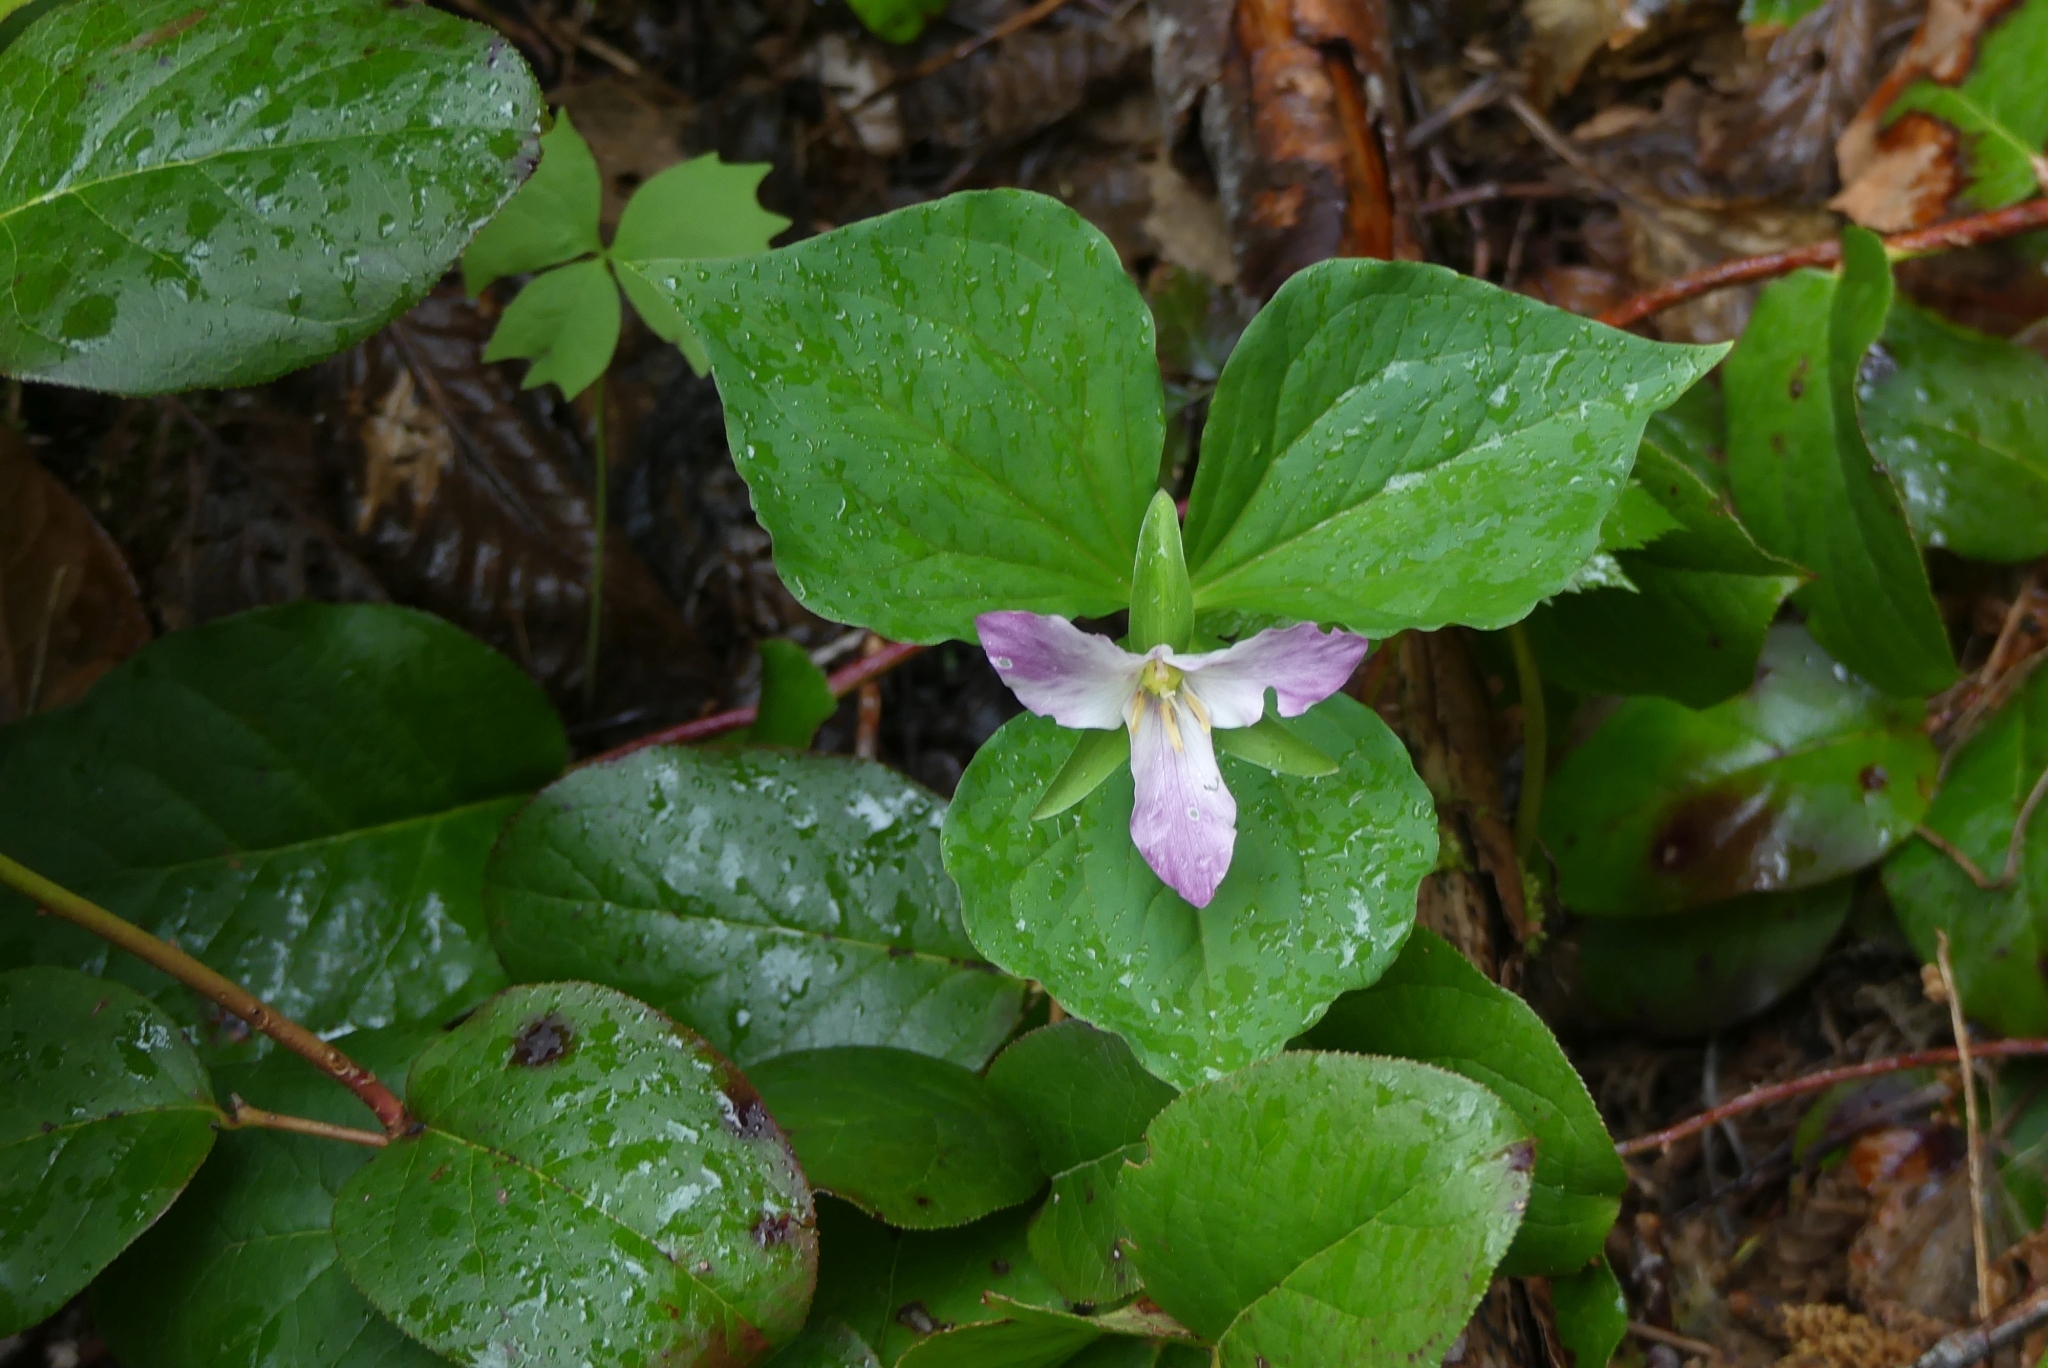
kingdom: Plantae
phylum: Tracheophyta
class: Liliopsida
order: Liliales
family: Melanthiaceae
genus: Trillium
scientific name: Trillium ovatum
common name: Pacific trillium
